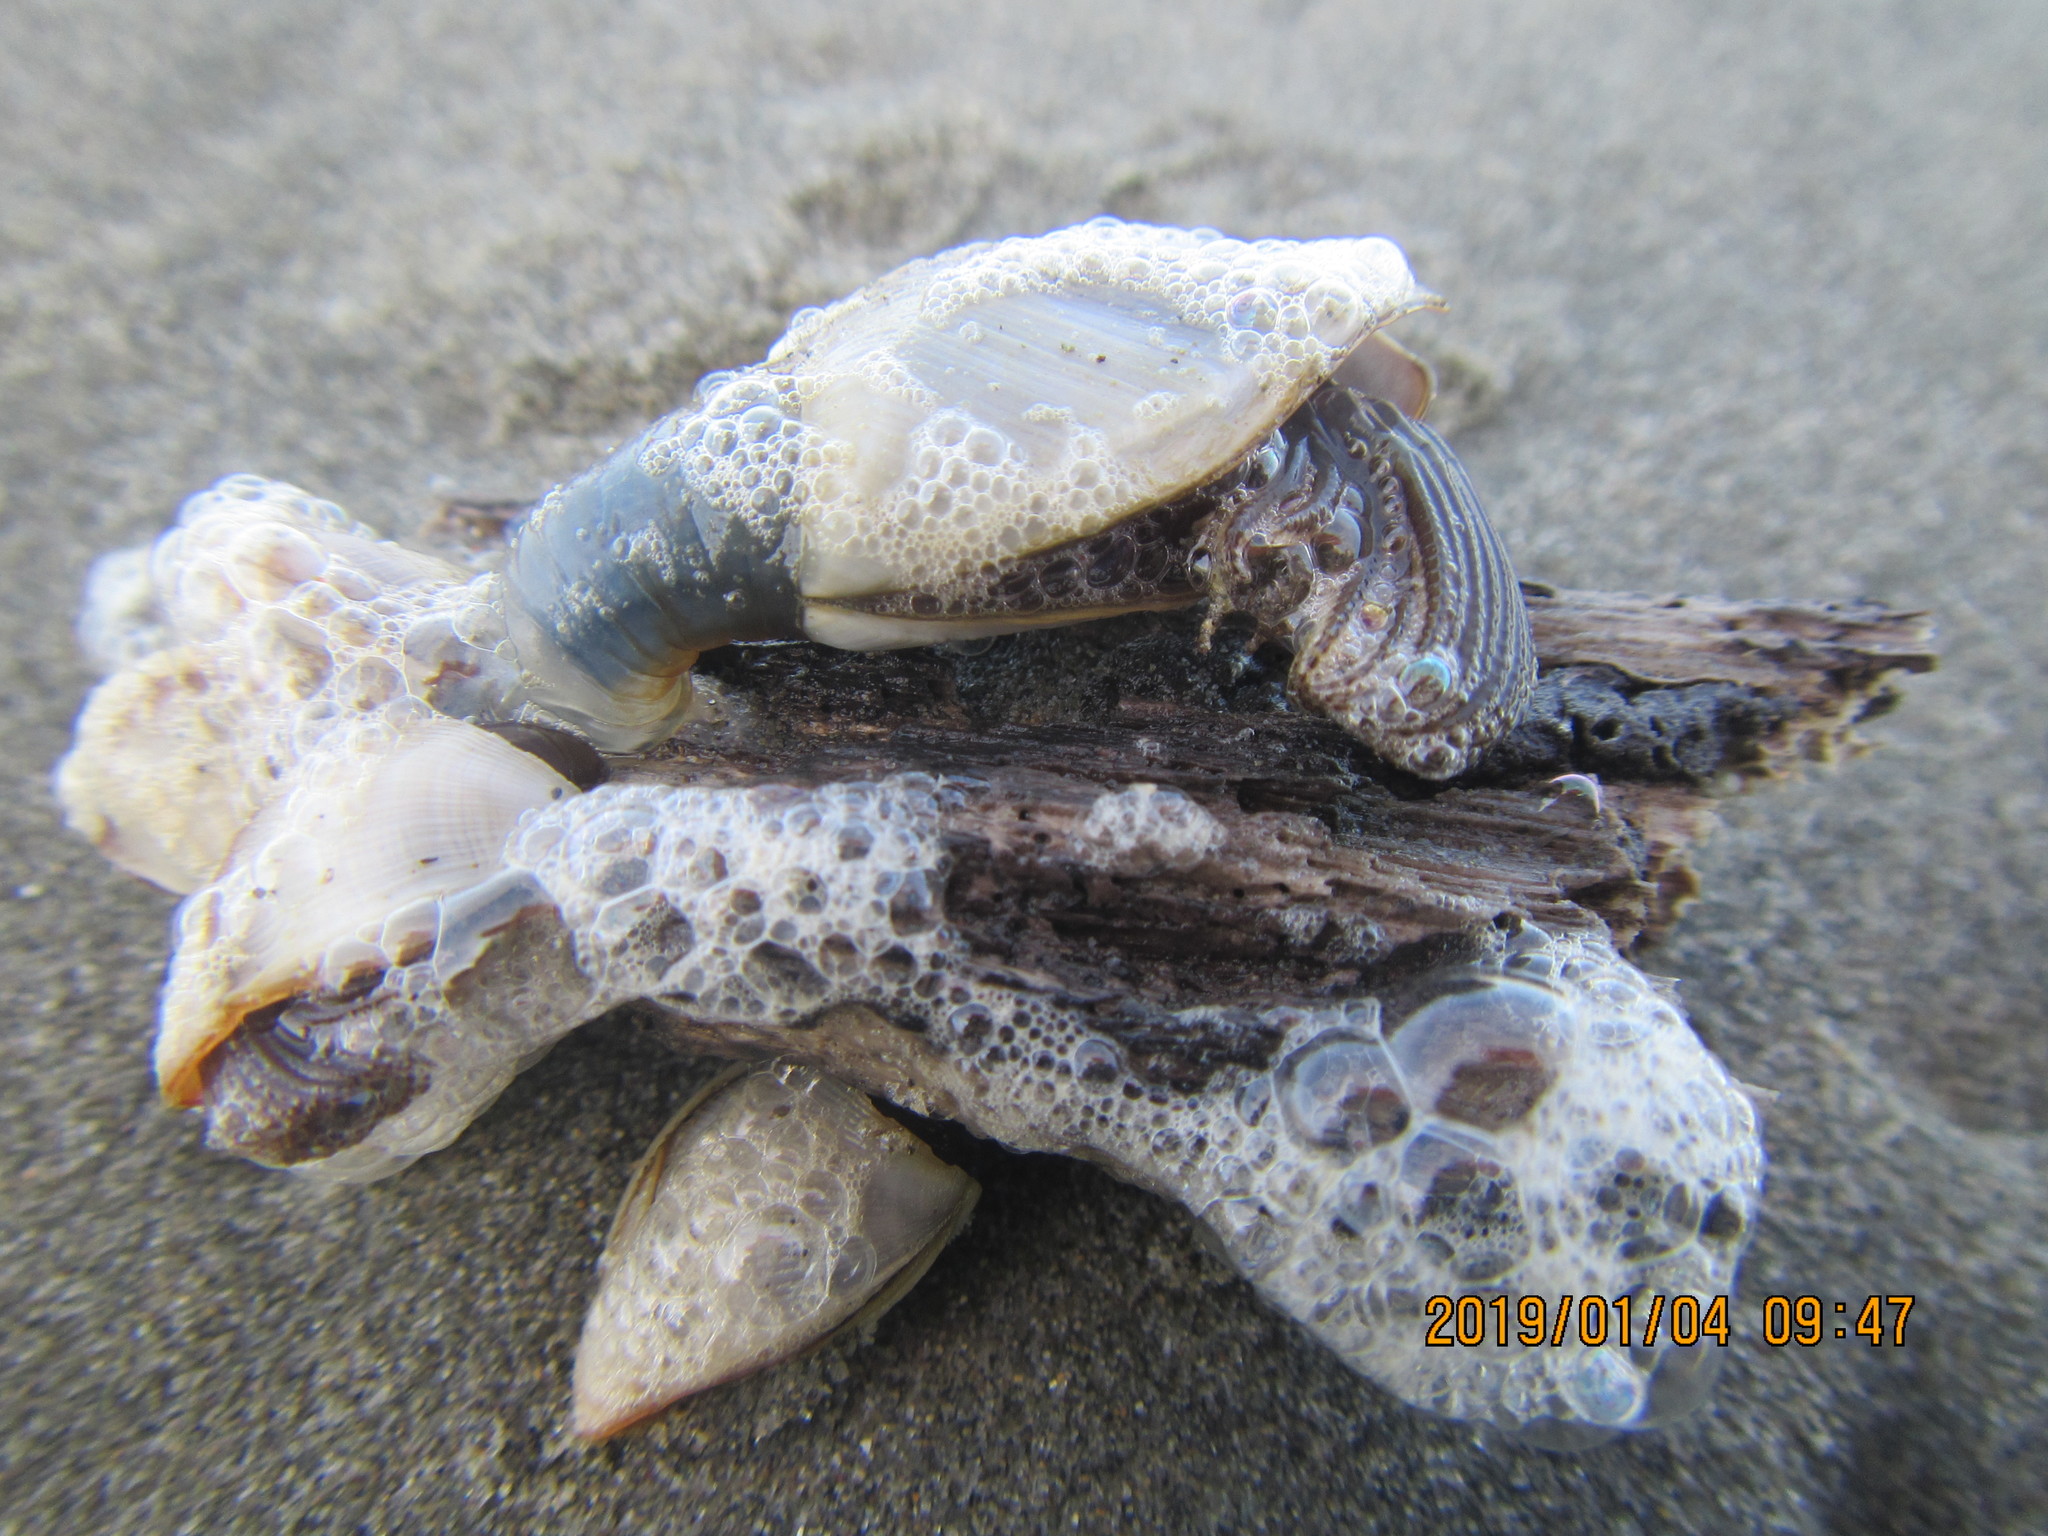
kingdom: Animalia
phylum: Arthropoda
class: Maxillopoda
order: Pedunculata
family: Lepadidae
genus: Lepas
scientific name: Lepas australis
